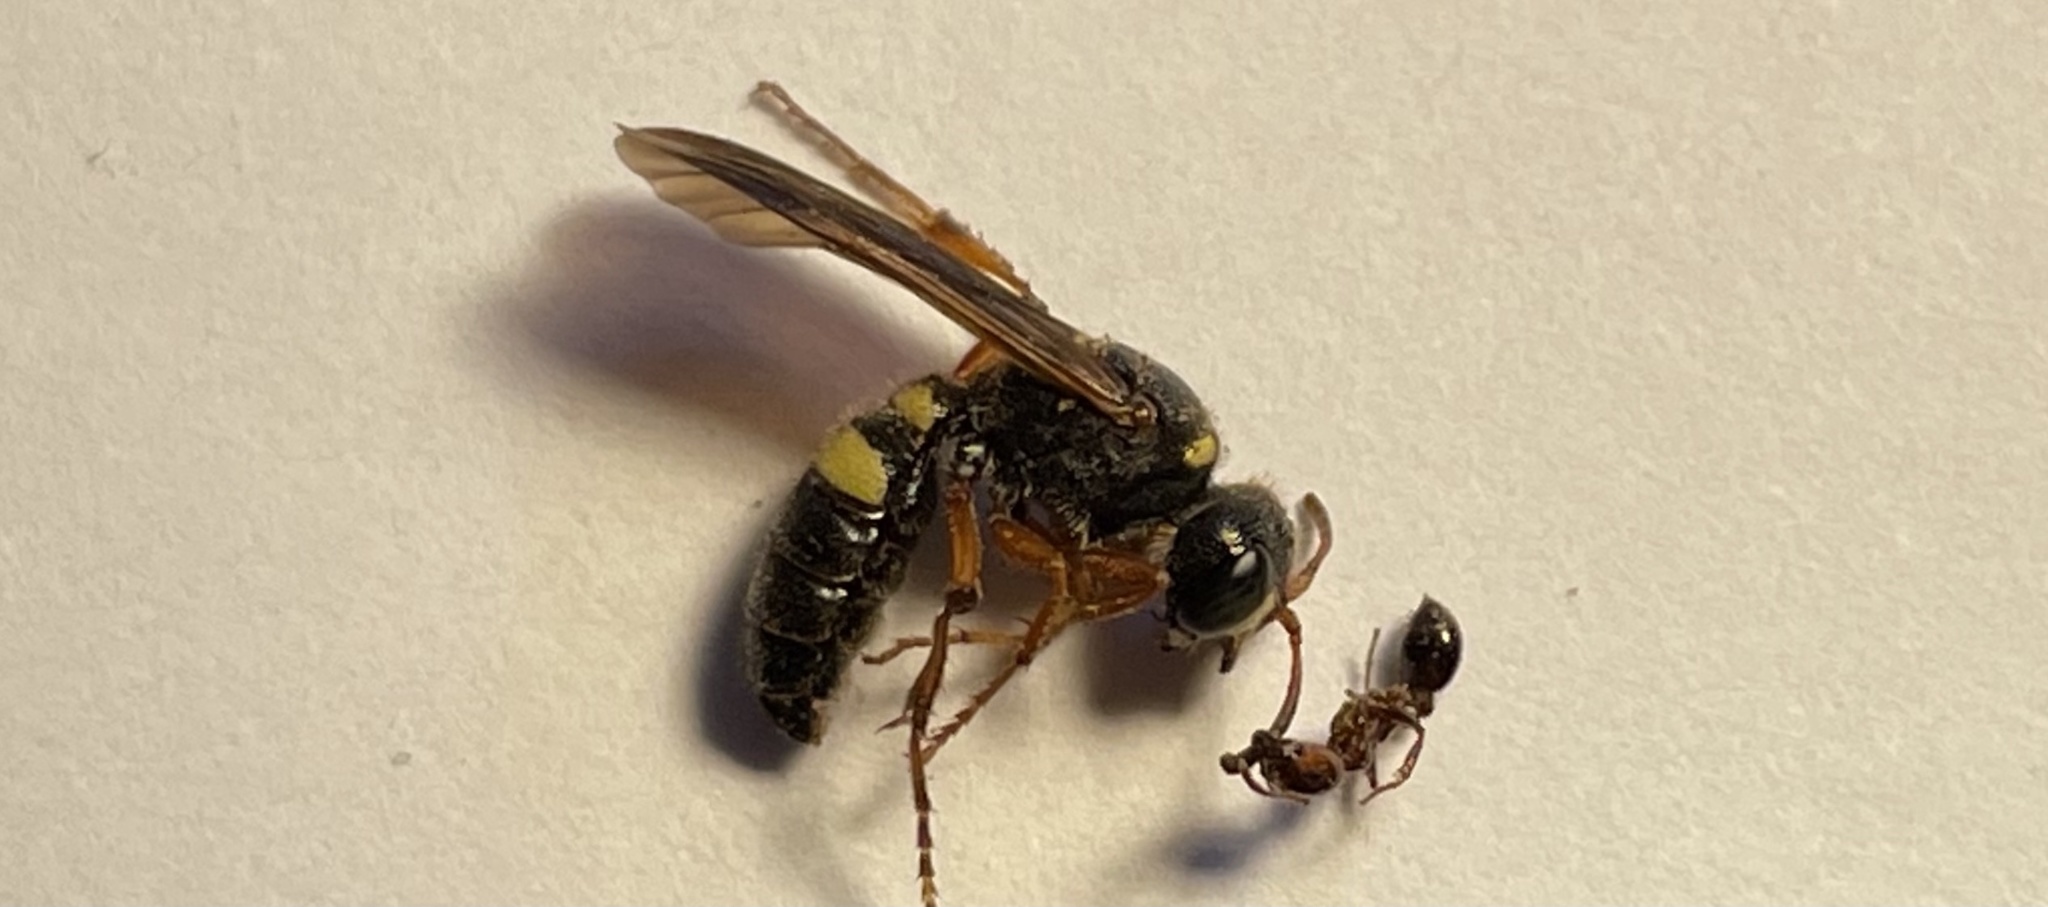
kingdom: Animalia
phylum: Arthropoda
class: Insecta
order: Hymenoptera
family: Crabronidae
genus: Cerceris
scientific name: Cerceris gnarina
